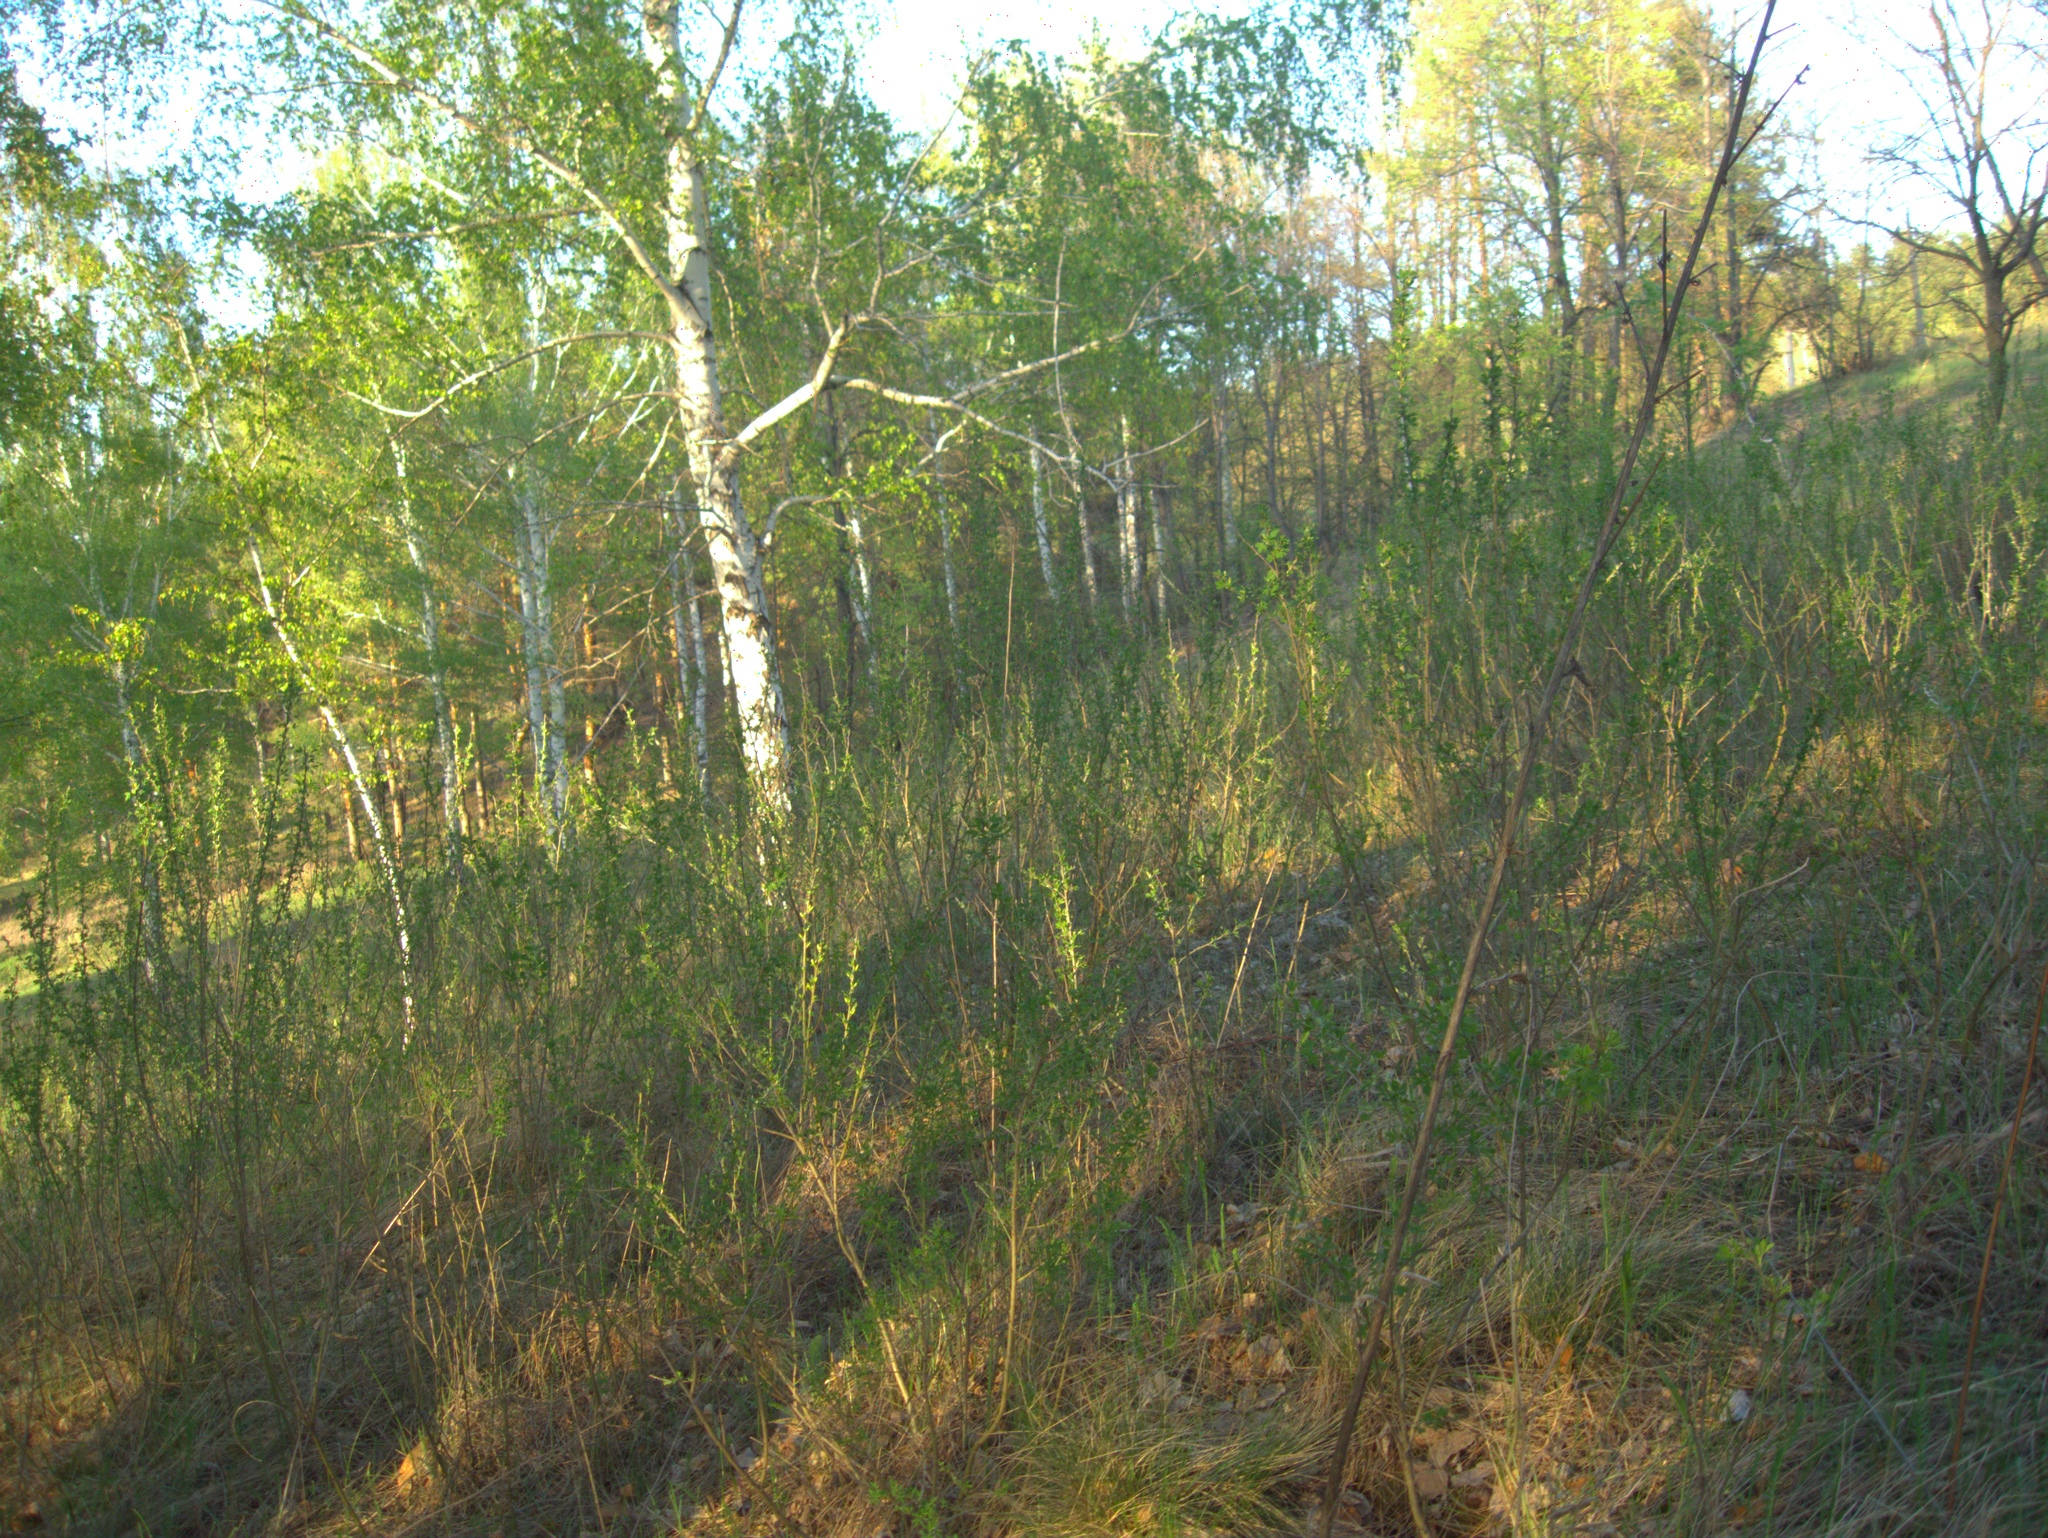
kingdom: Plantae
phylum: Tracheophyta
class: Magnoliopsida
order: Fabales
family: Fabaceae
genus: Chamaecytisus
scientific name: Chamaecytisus ruthenicus
